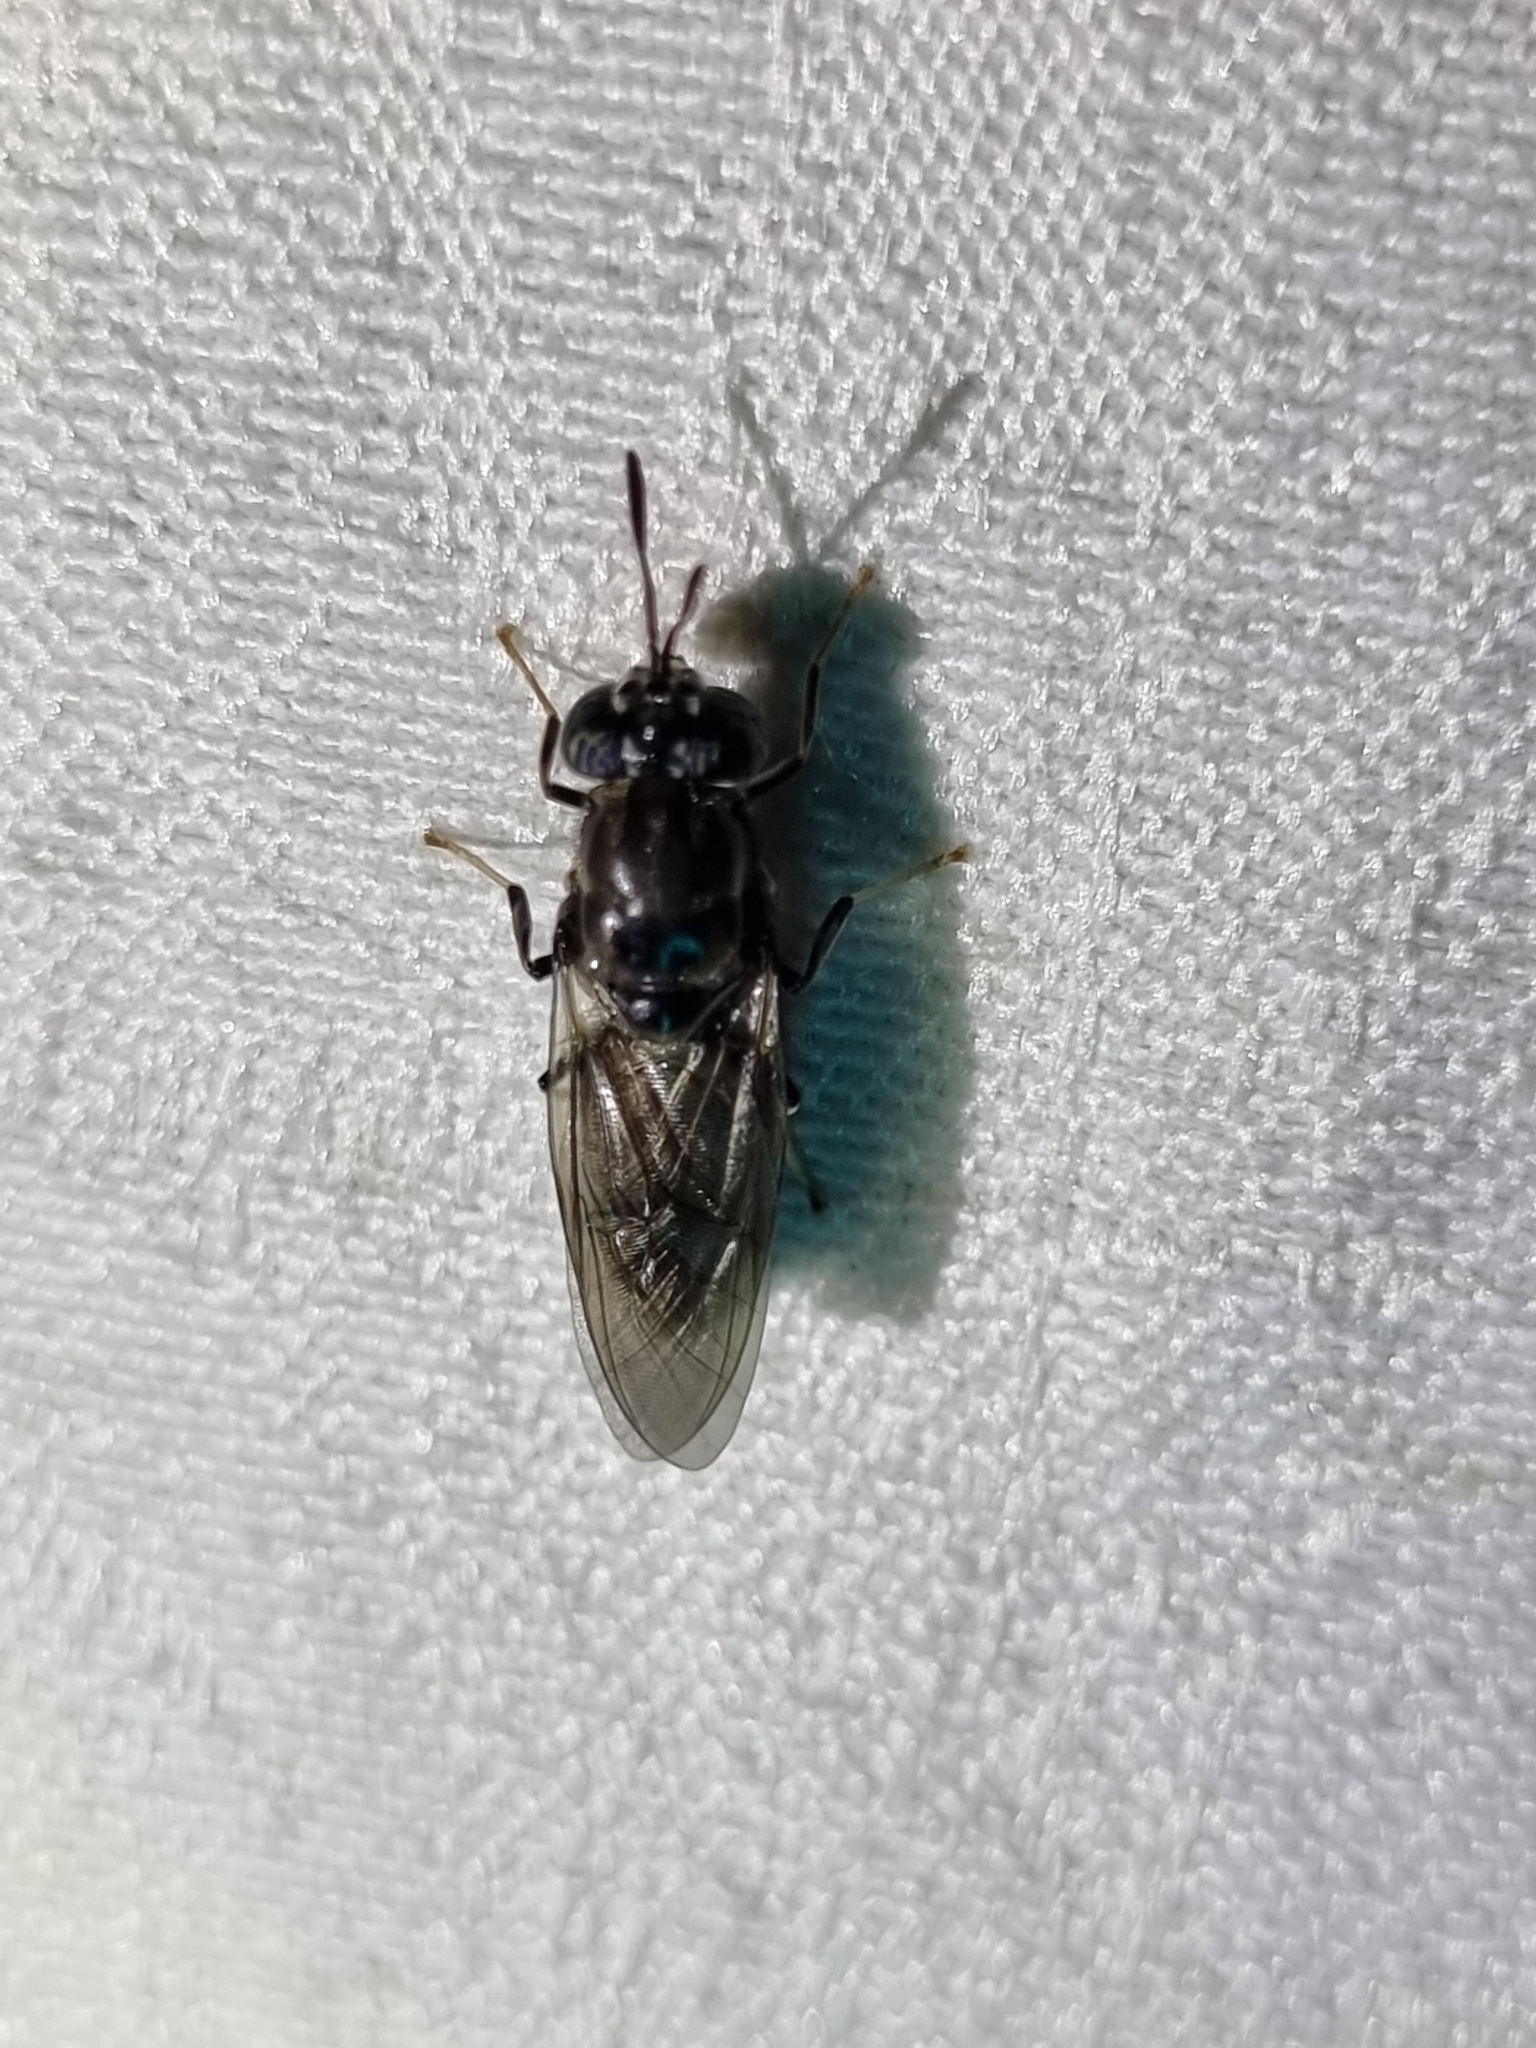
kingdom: Animalia
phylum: Arthropoda
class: Insecta
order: Diptera
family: Stratiomyidae
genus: Hermetia
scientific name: Hermetia illucens
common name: Black soldier fly
